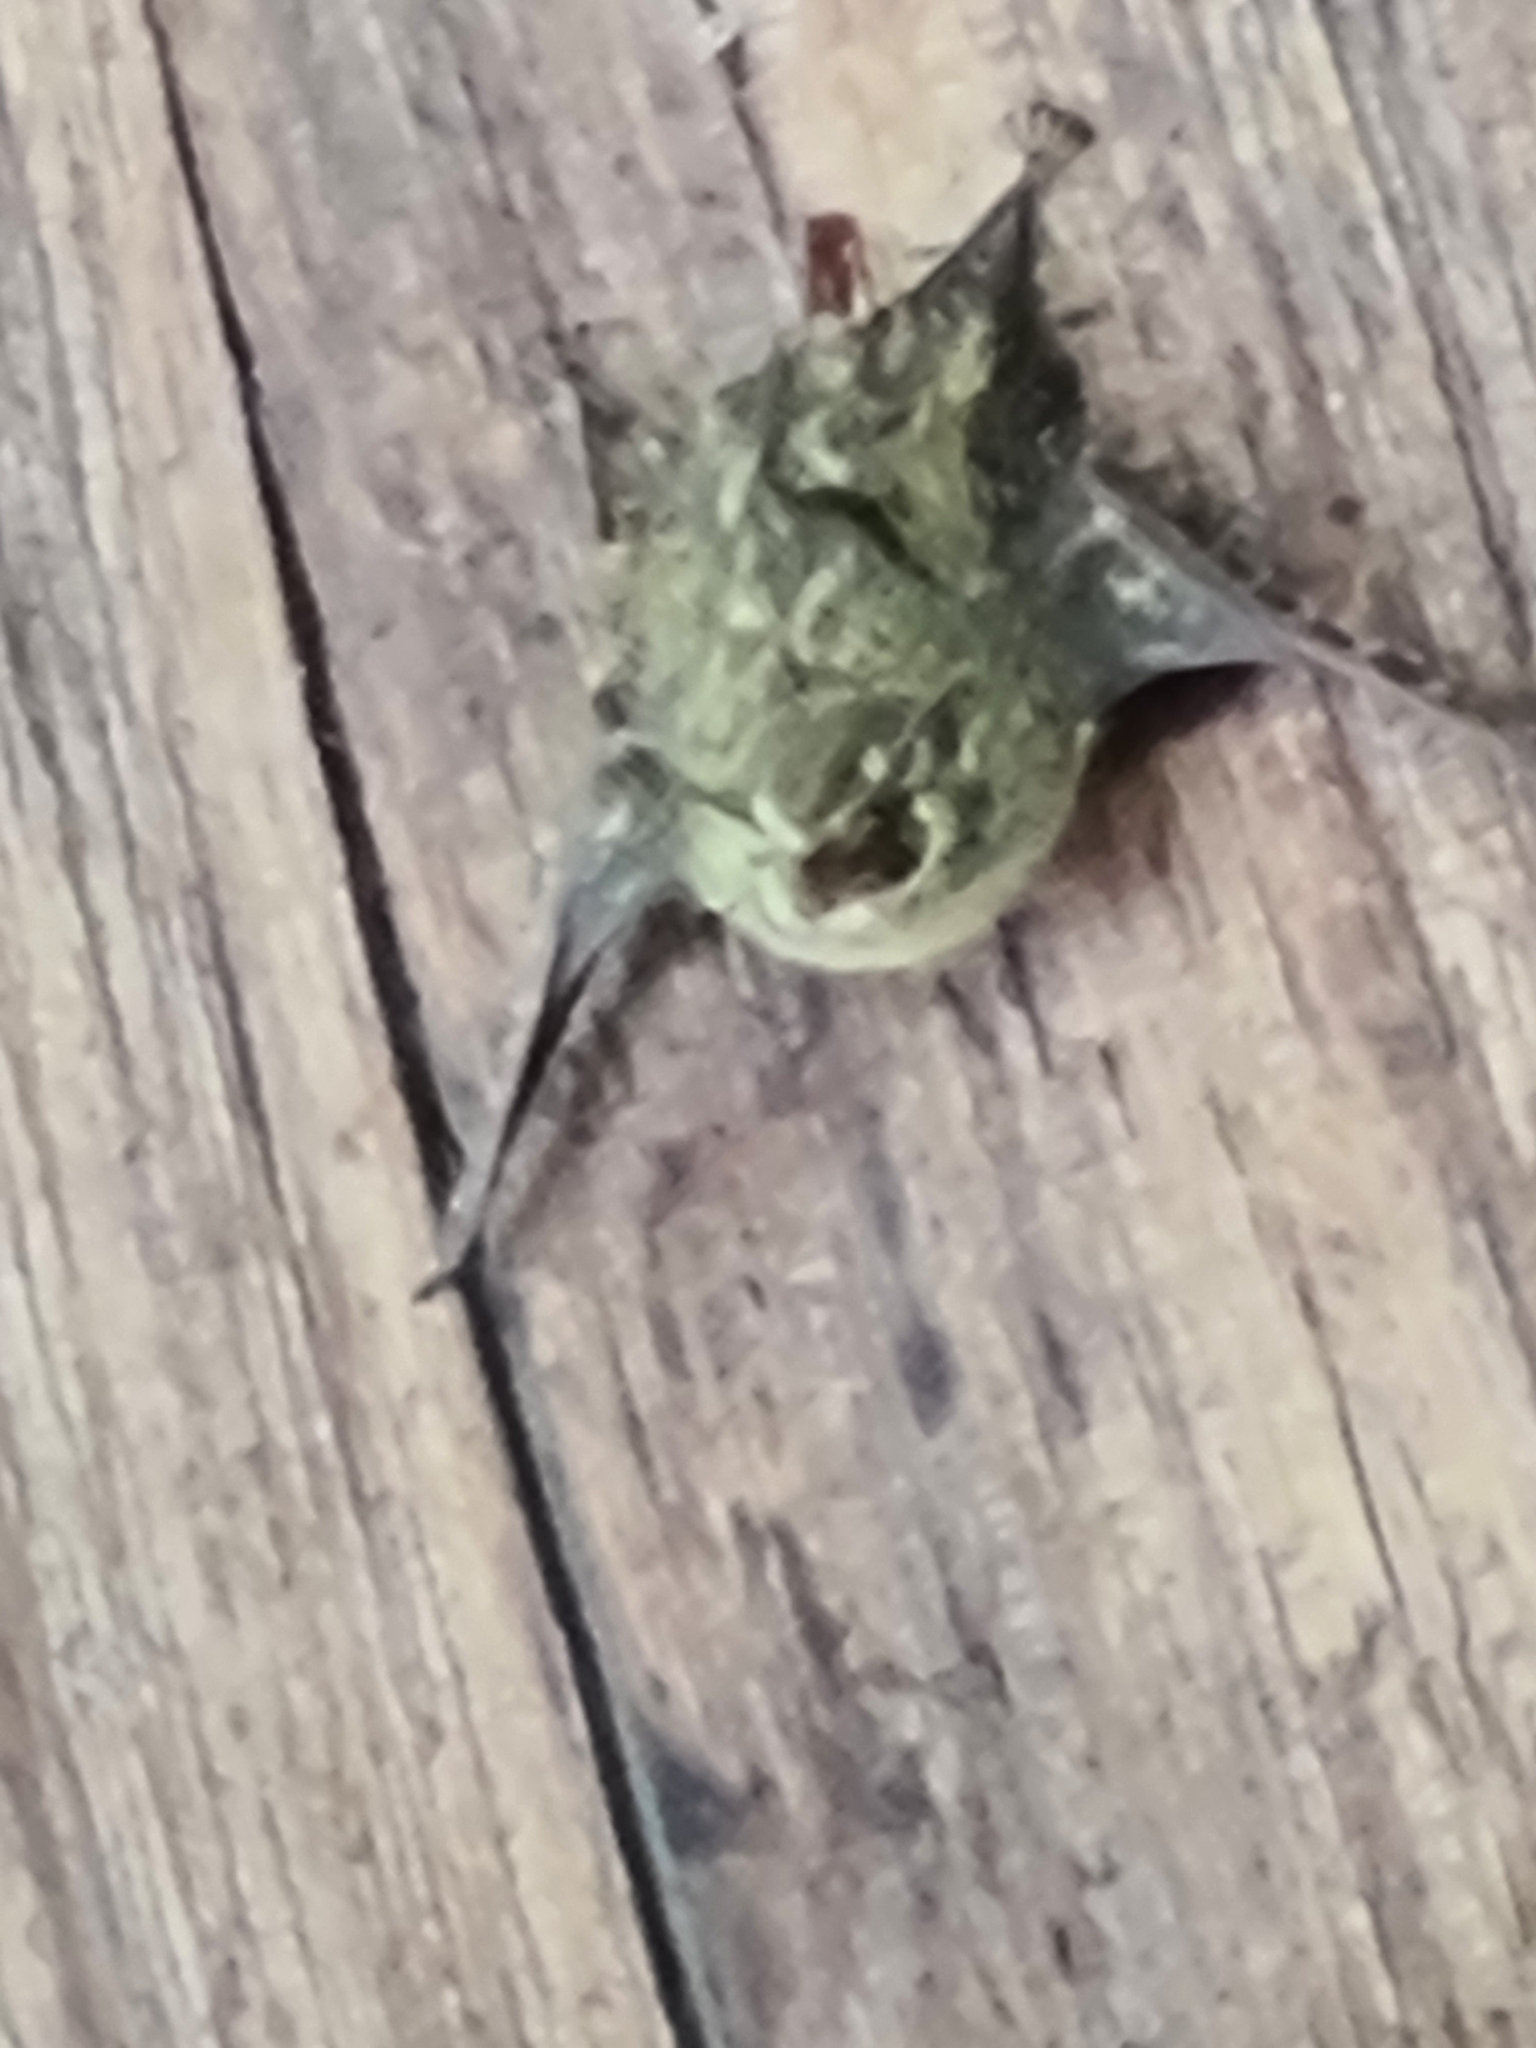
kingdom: Animalia
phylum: Chordata
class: Mammalia
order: Chiroptera
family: Emballonuridae
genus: Rhynchonycteris
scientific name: Rhynchonycteris naso
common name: Proboscis bat
